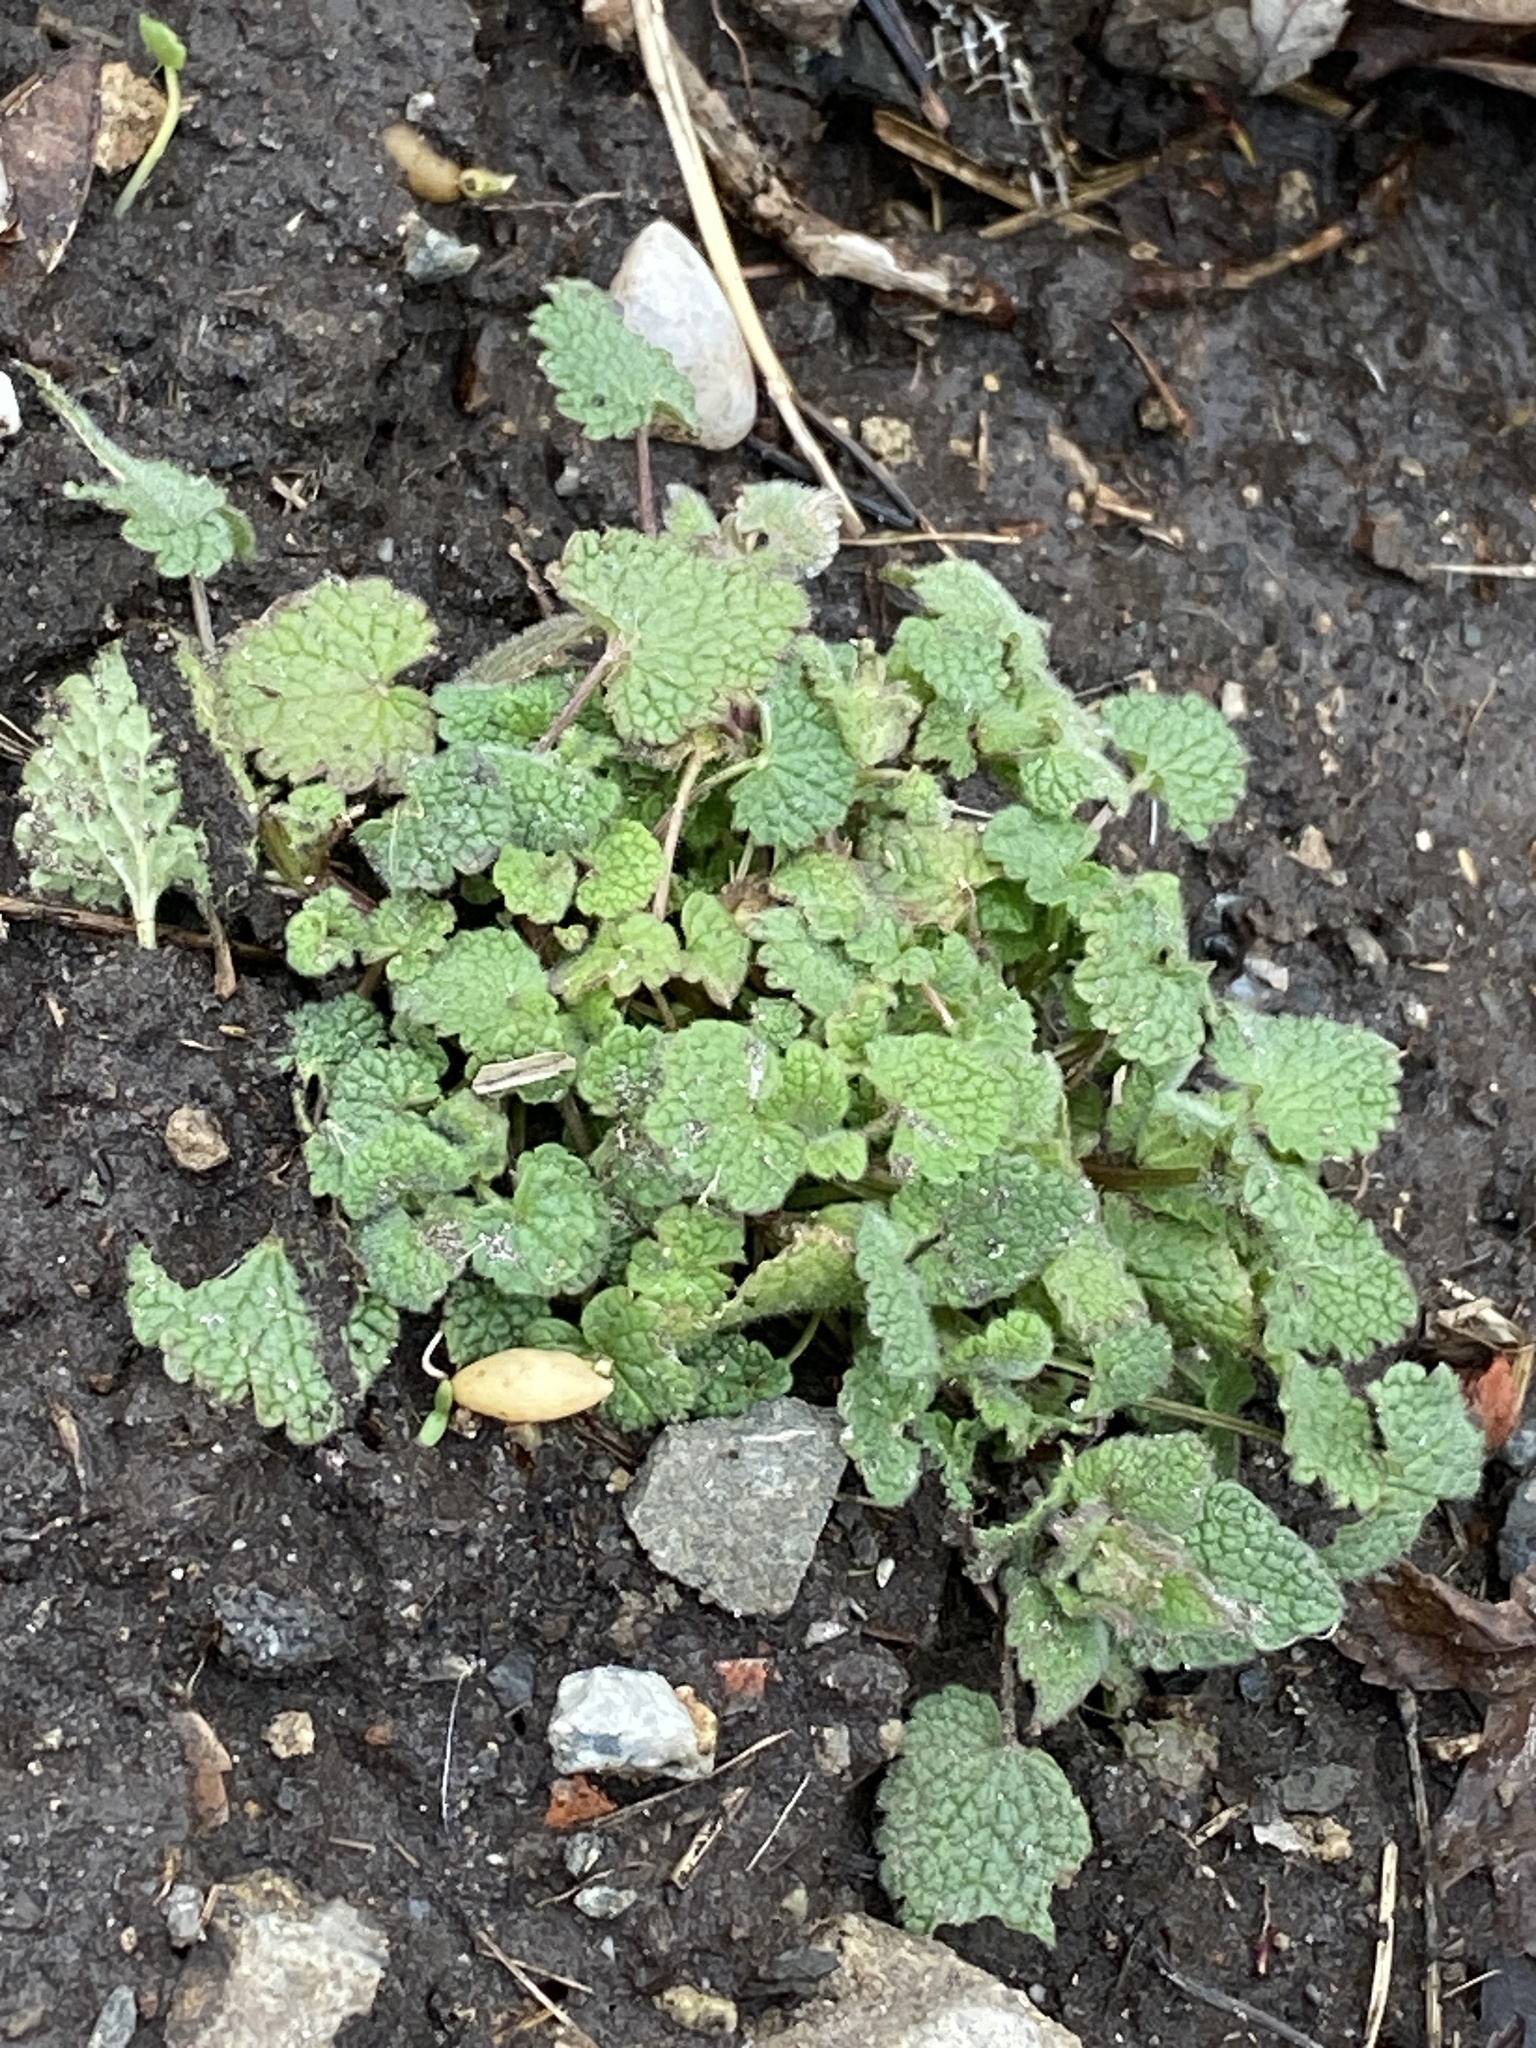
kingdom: Plantae
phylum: Tracheophyta
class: Magnoliopsida
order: Lamiales
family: Lamiaceae
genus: Lamium
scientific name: Lamium purpureum
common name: Red dead-nettle
